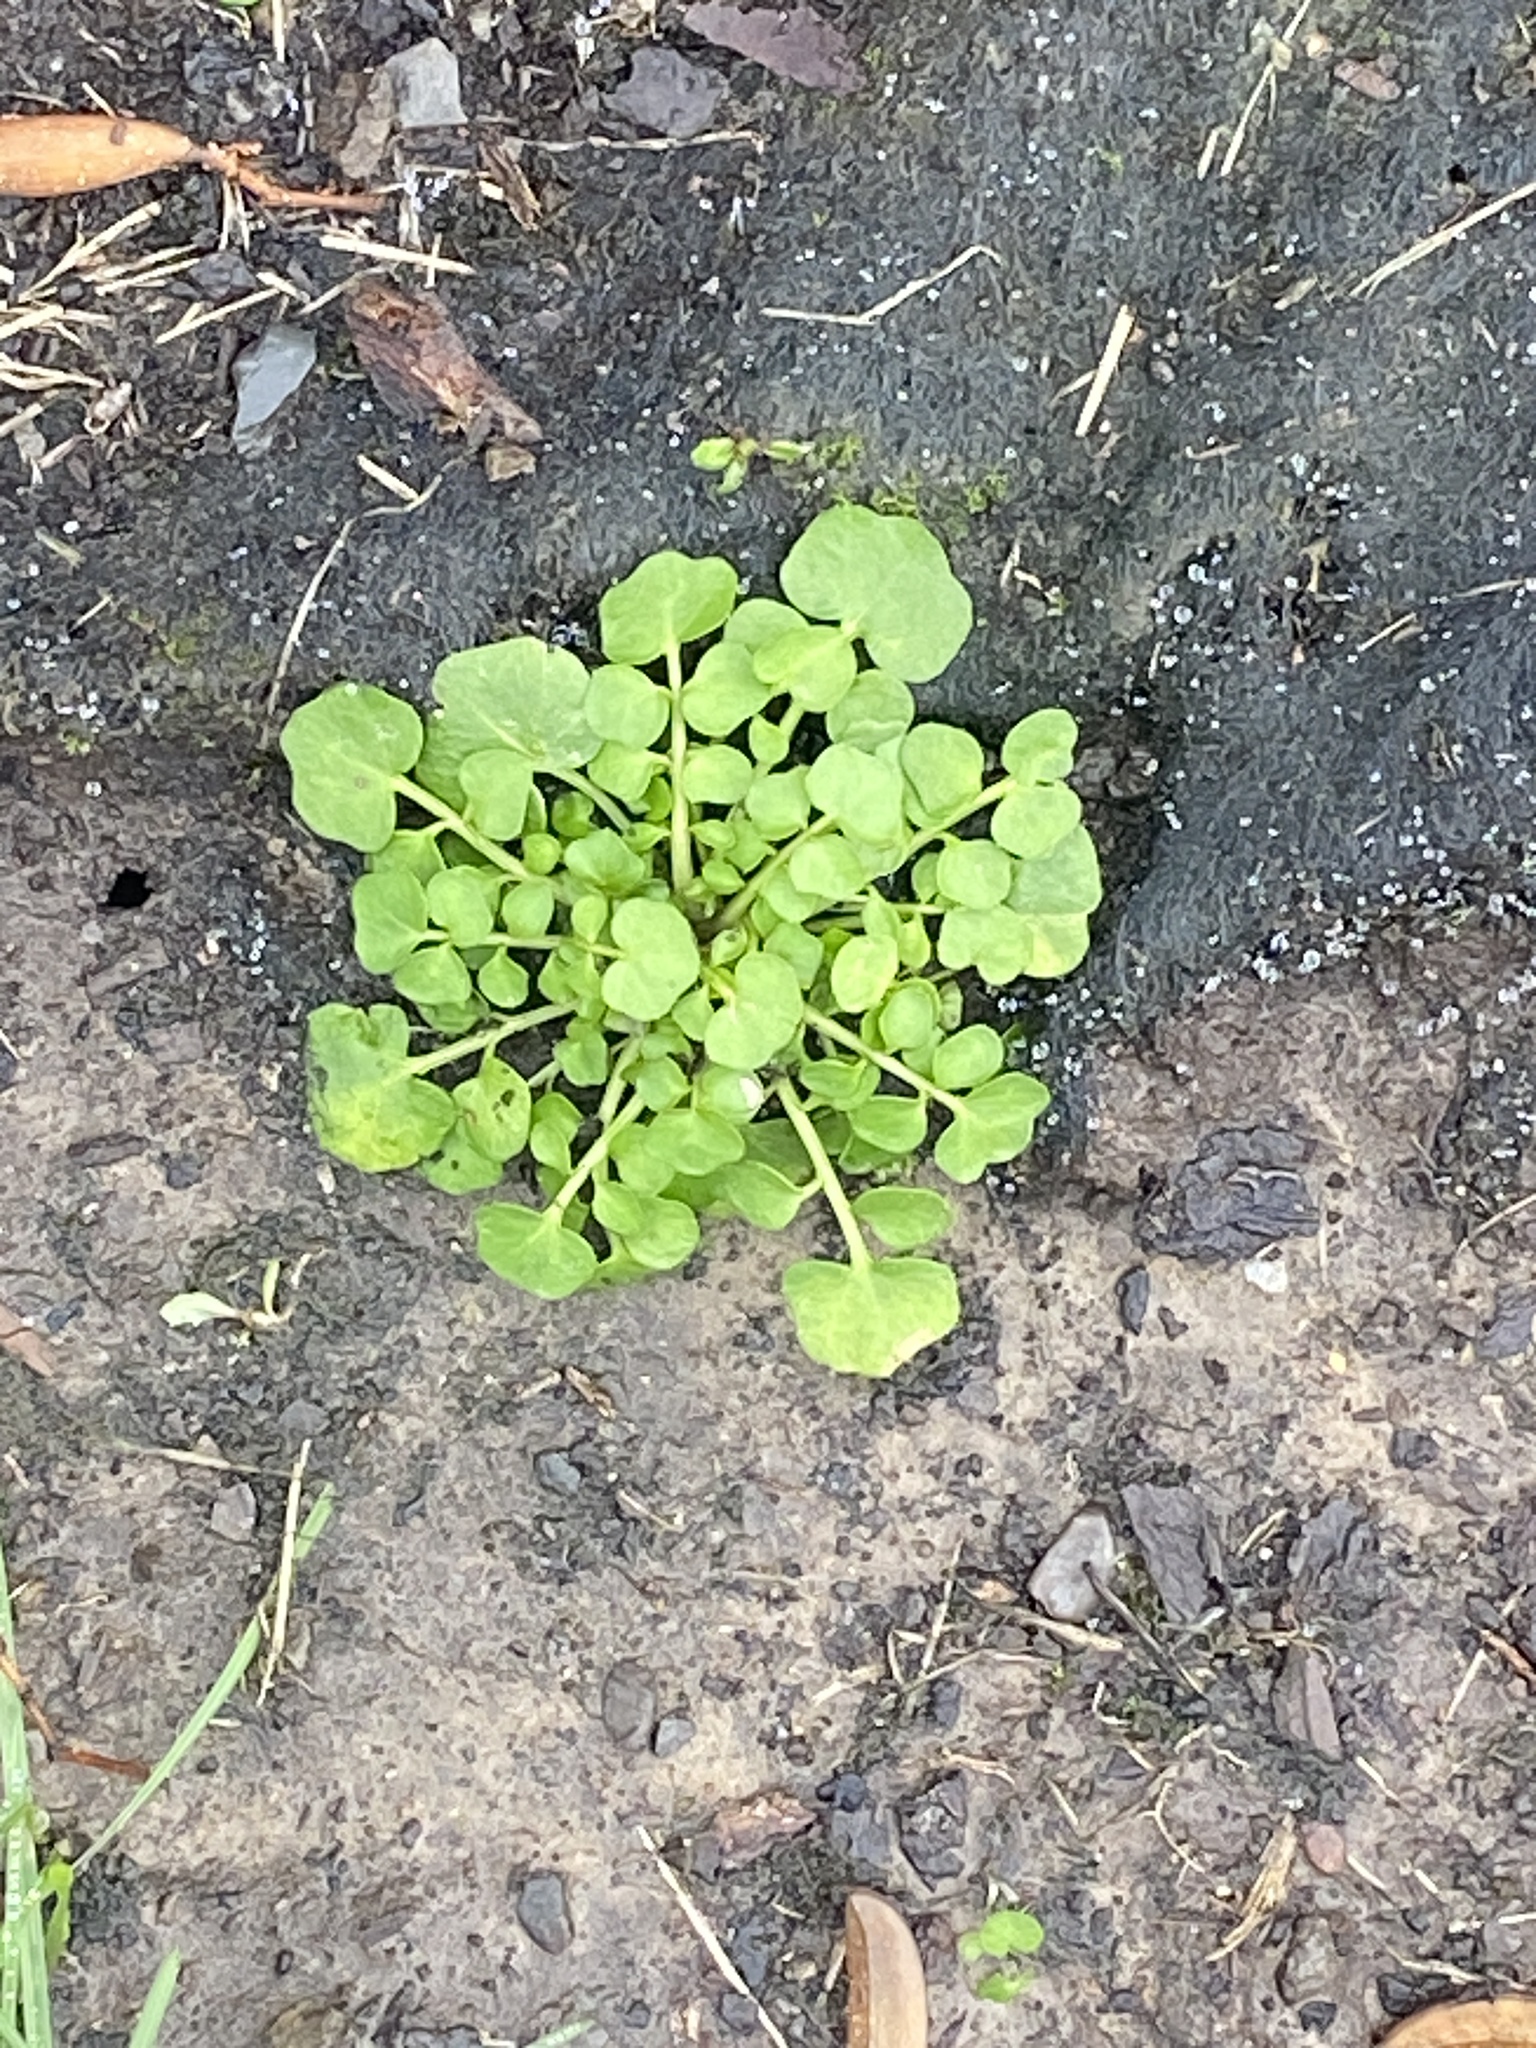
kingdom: Plantae
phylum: Tracheophyta
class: Magnoliopsida
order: Brassicales
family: Brassicaceae
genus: Cardamine
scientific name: Cardamine hirsuta
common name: Hairy bittercress
